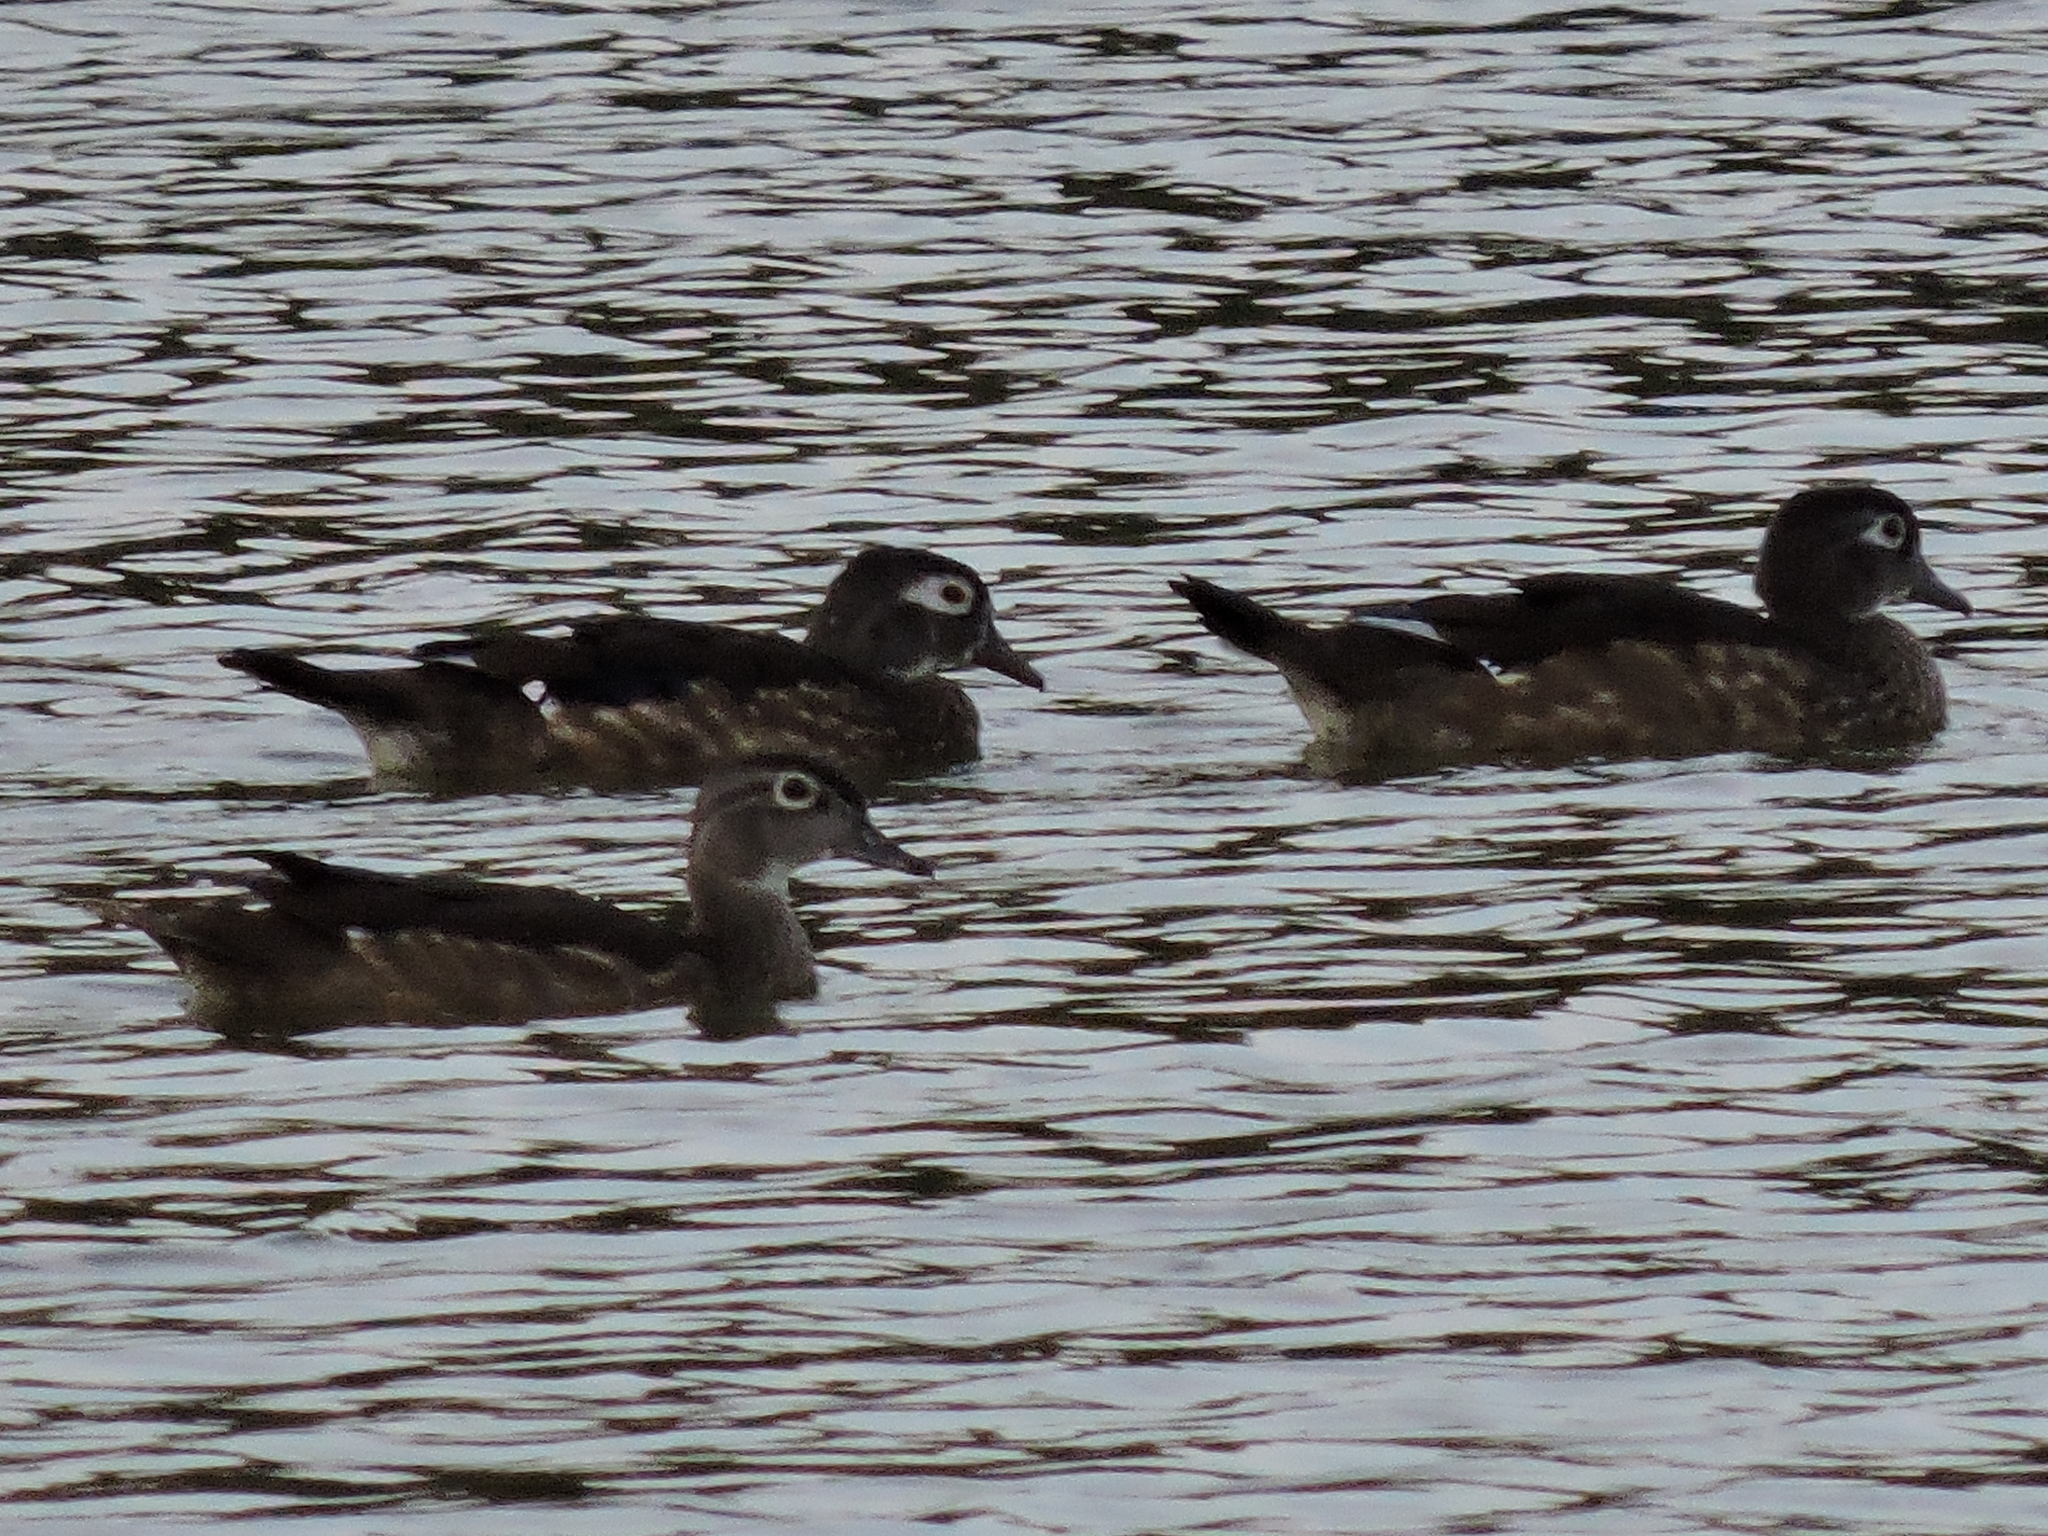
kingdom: Animalia
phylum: Chordata
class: Aves
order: Anseriformes
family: Anatidae
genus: Aix
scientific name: Aix sponsa
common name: Wood duck
